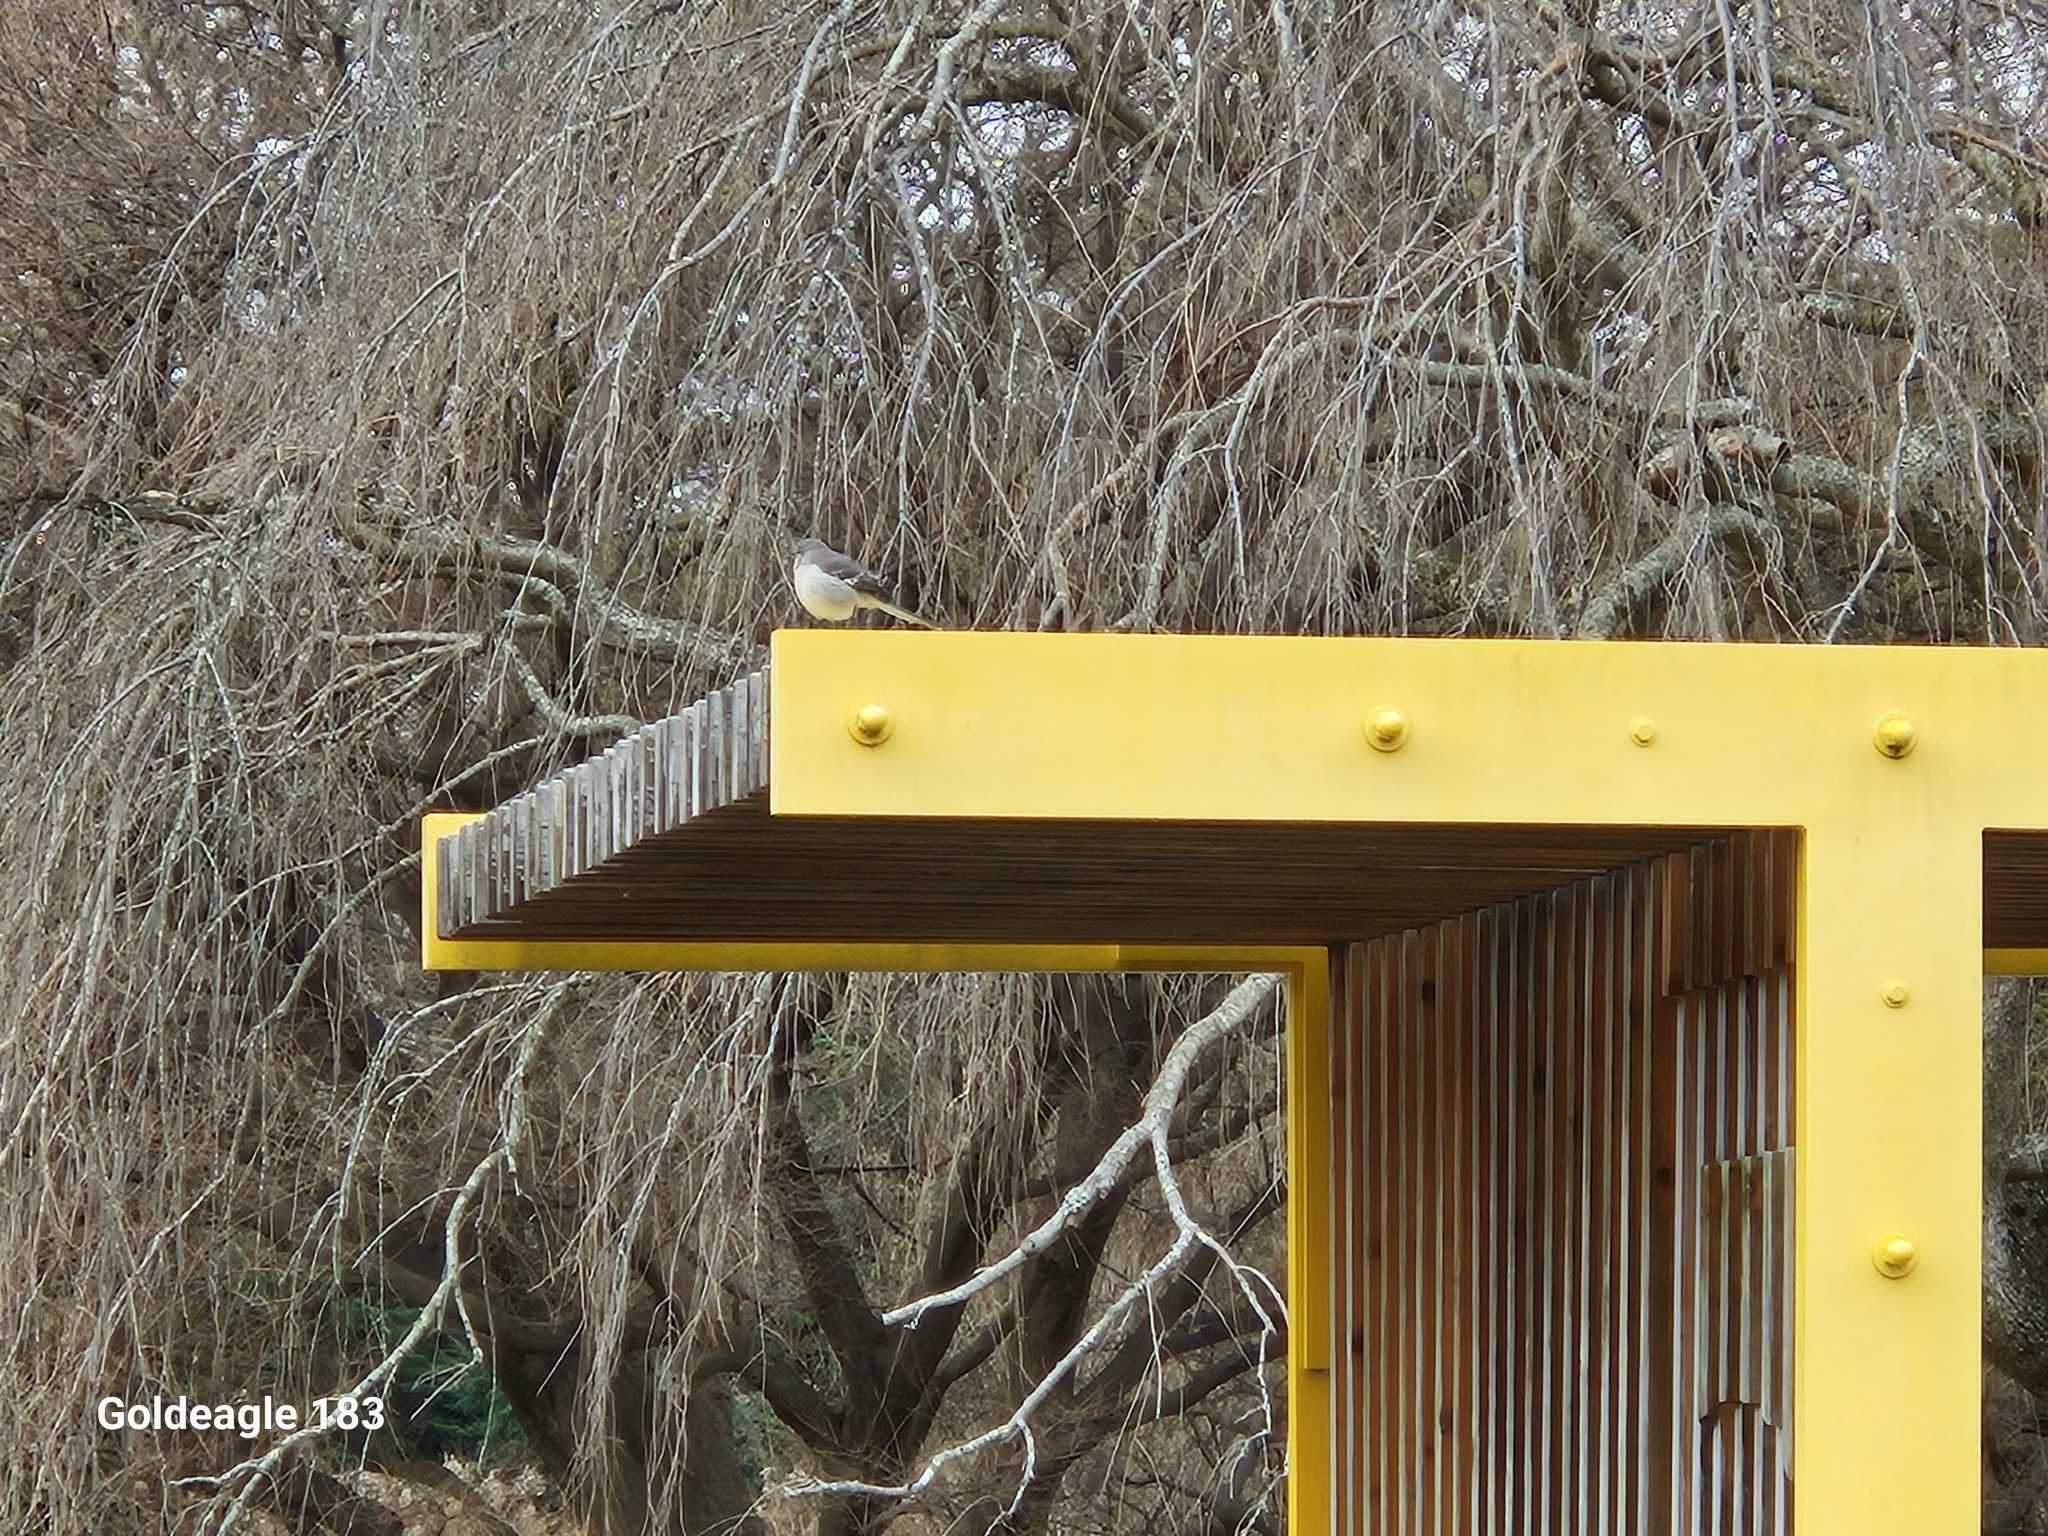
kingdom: Animalia
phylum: Chordata
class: Aves
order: Passeriformes
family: Mimidae
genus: Mimus
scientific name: Mimus polyglottos
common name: Northern mockingbird
